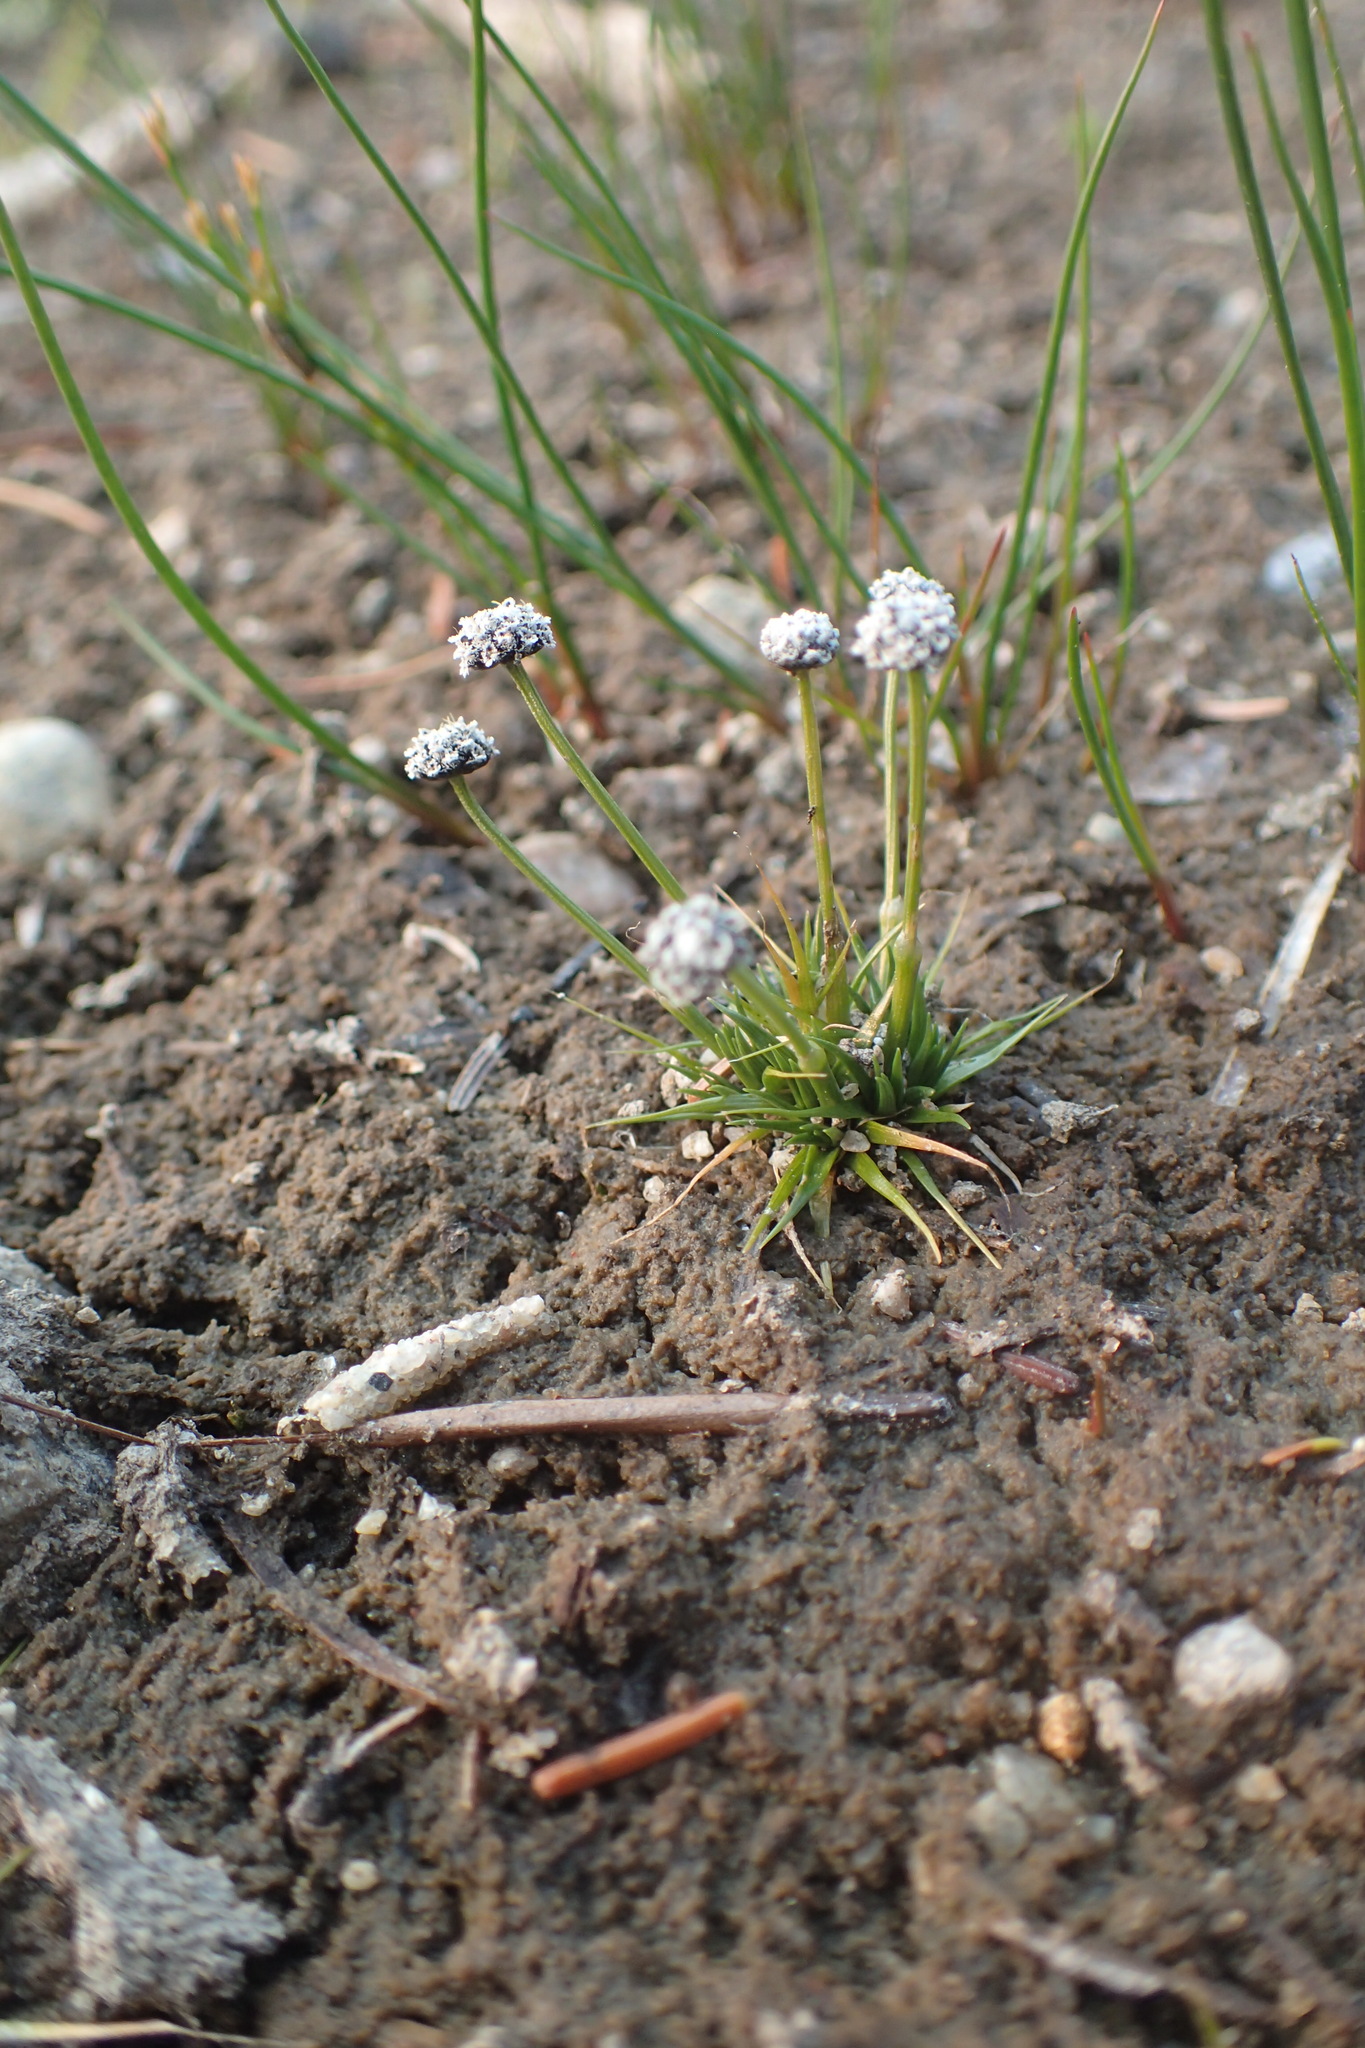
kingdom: Plantae
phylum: Tracheophyta
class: Liliopsida
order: Poales
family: Eriocaulaceae
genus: Eriocaulon
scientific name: Eriocaulon aquaticum
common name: Pipewort
